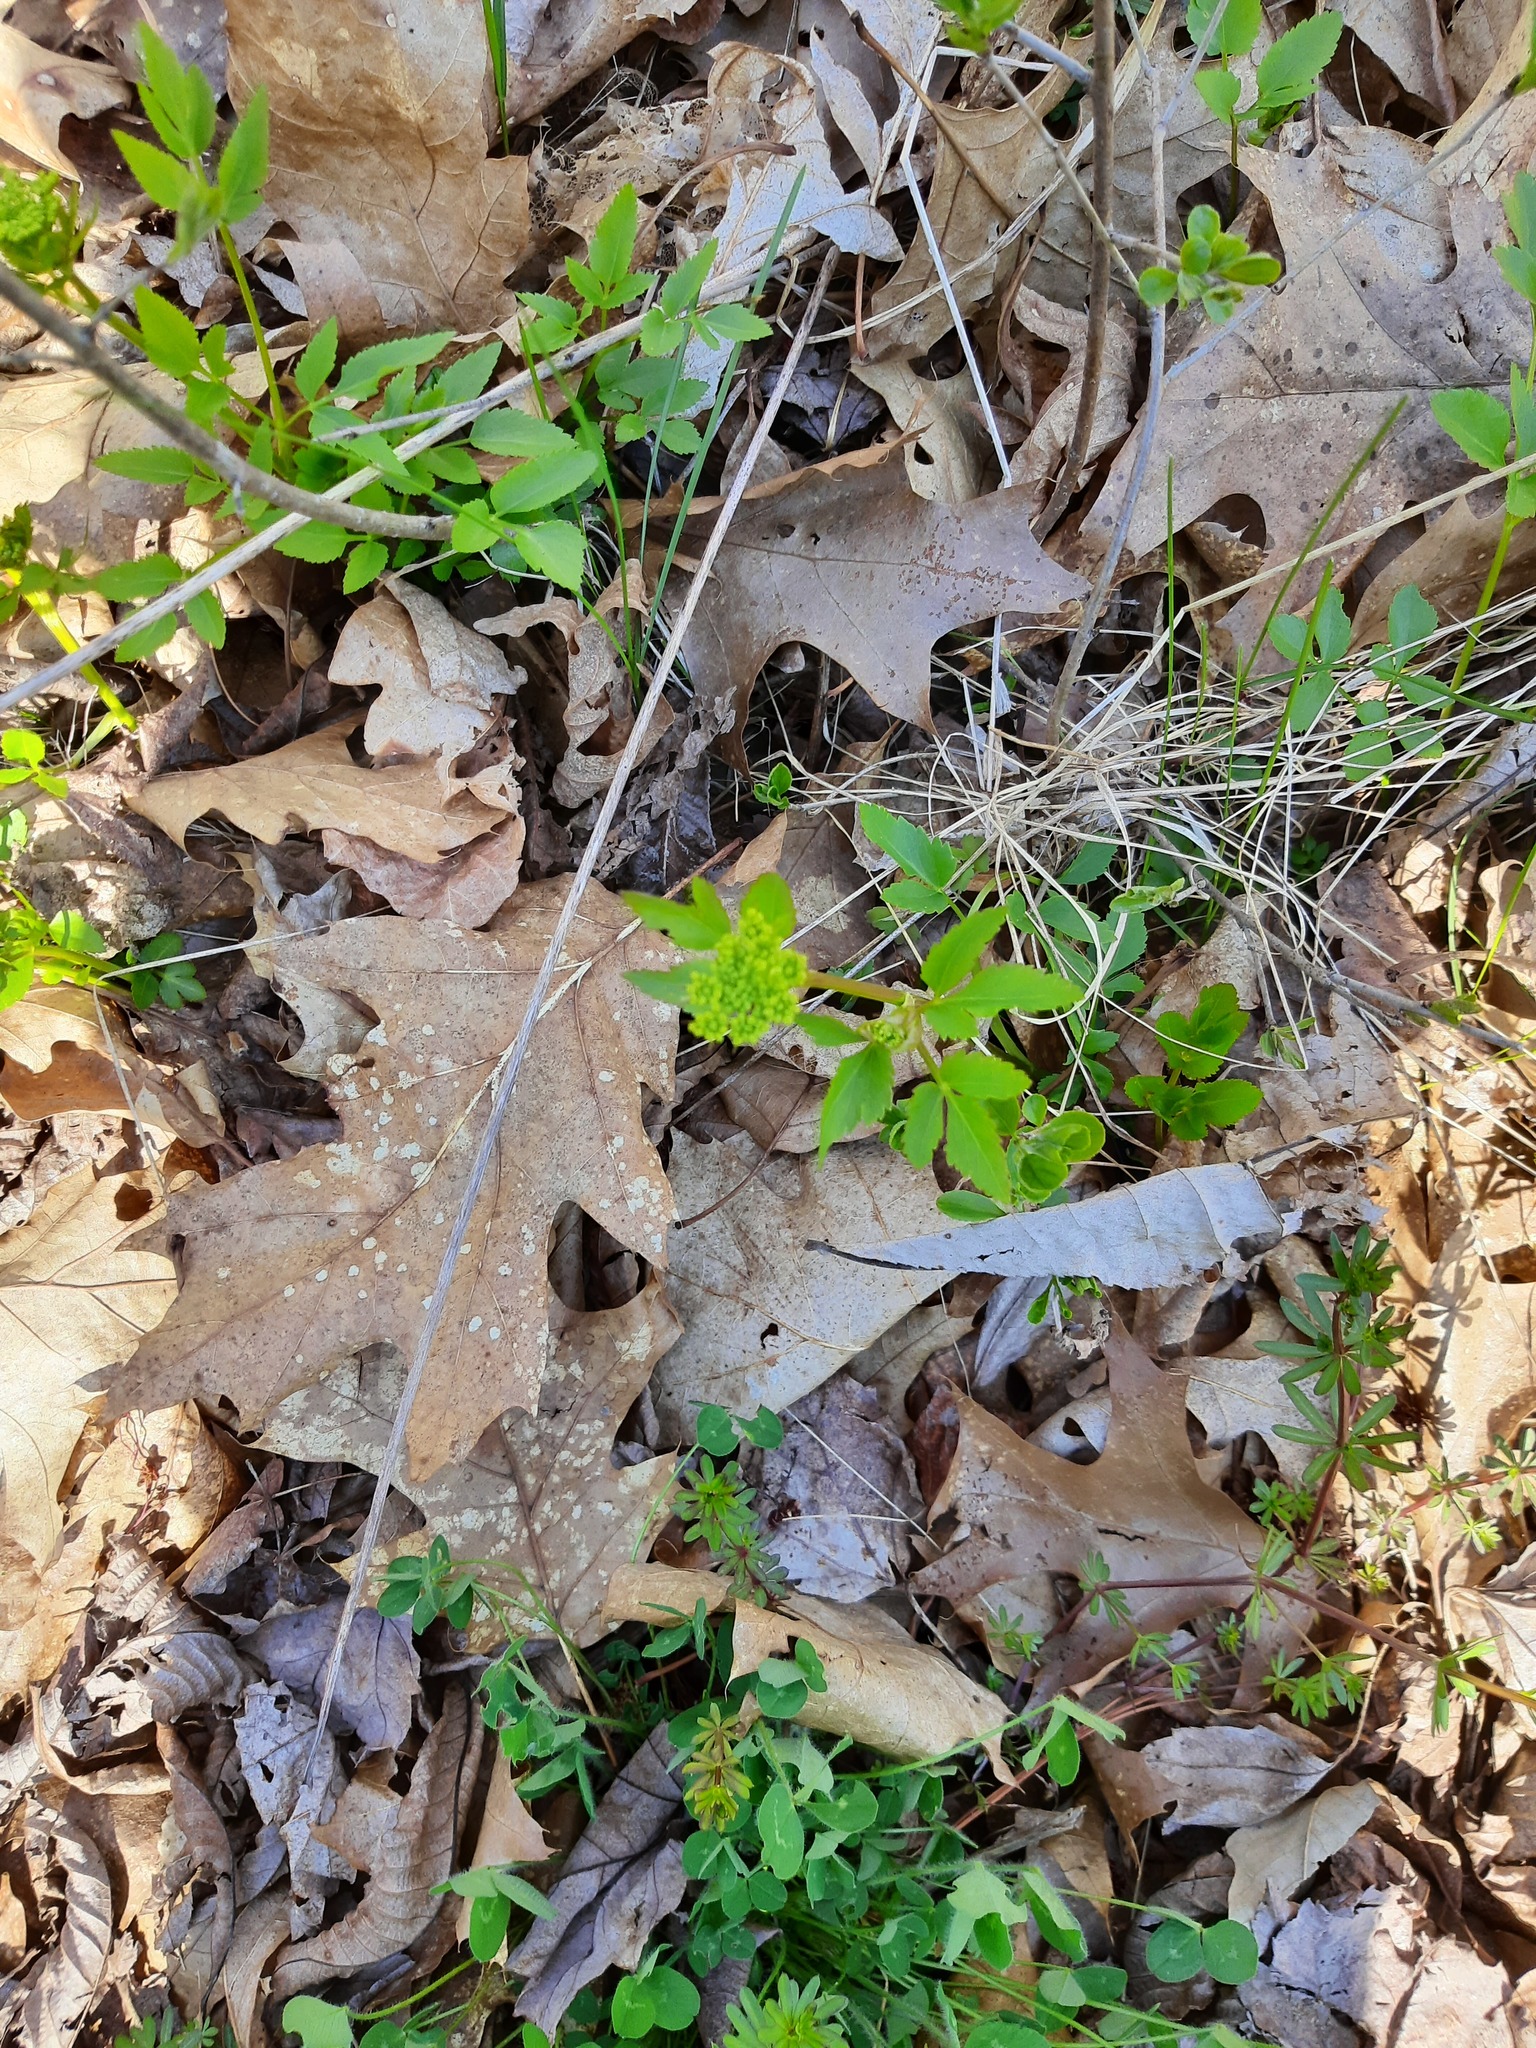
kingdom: Plantae
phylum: Tracheophyta
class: Magnoliopsida
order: Apiales
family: Apiaceae
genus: Zizia
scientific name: Zizia aurea
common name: Golden alexanders
